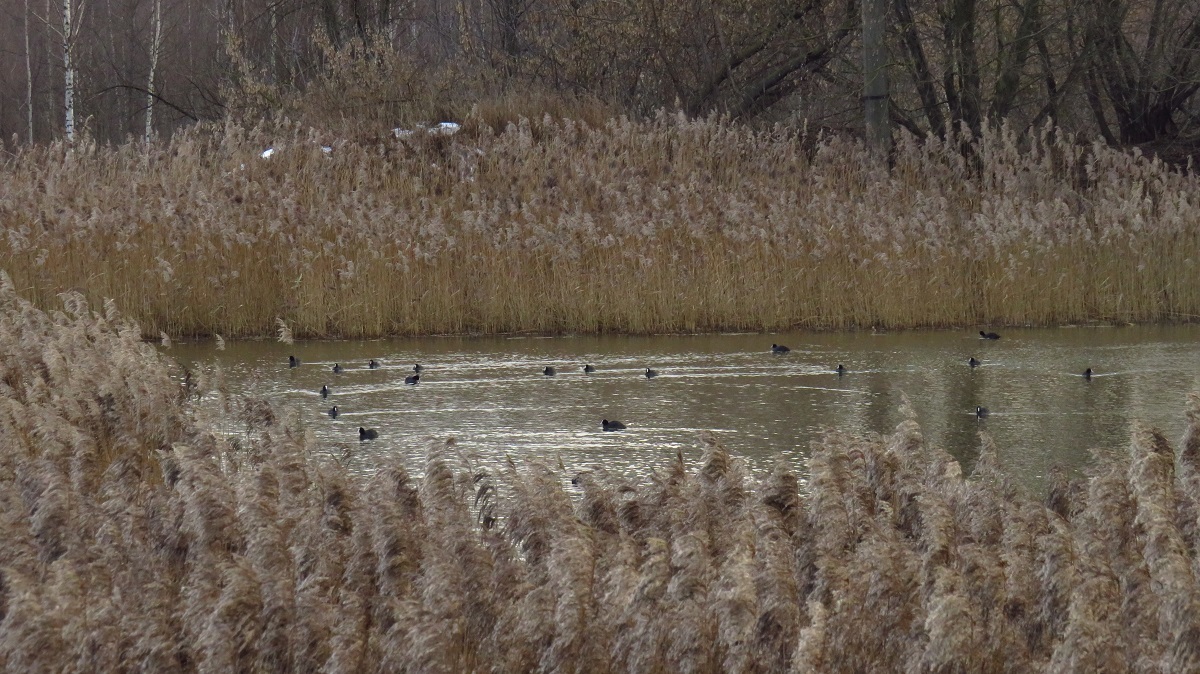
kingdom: Animalia
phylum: Chordata
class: Aves
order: Gruiformes
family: Rallidae
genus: Fulica
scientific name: Fulica atra
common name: Eurasian coot
